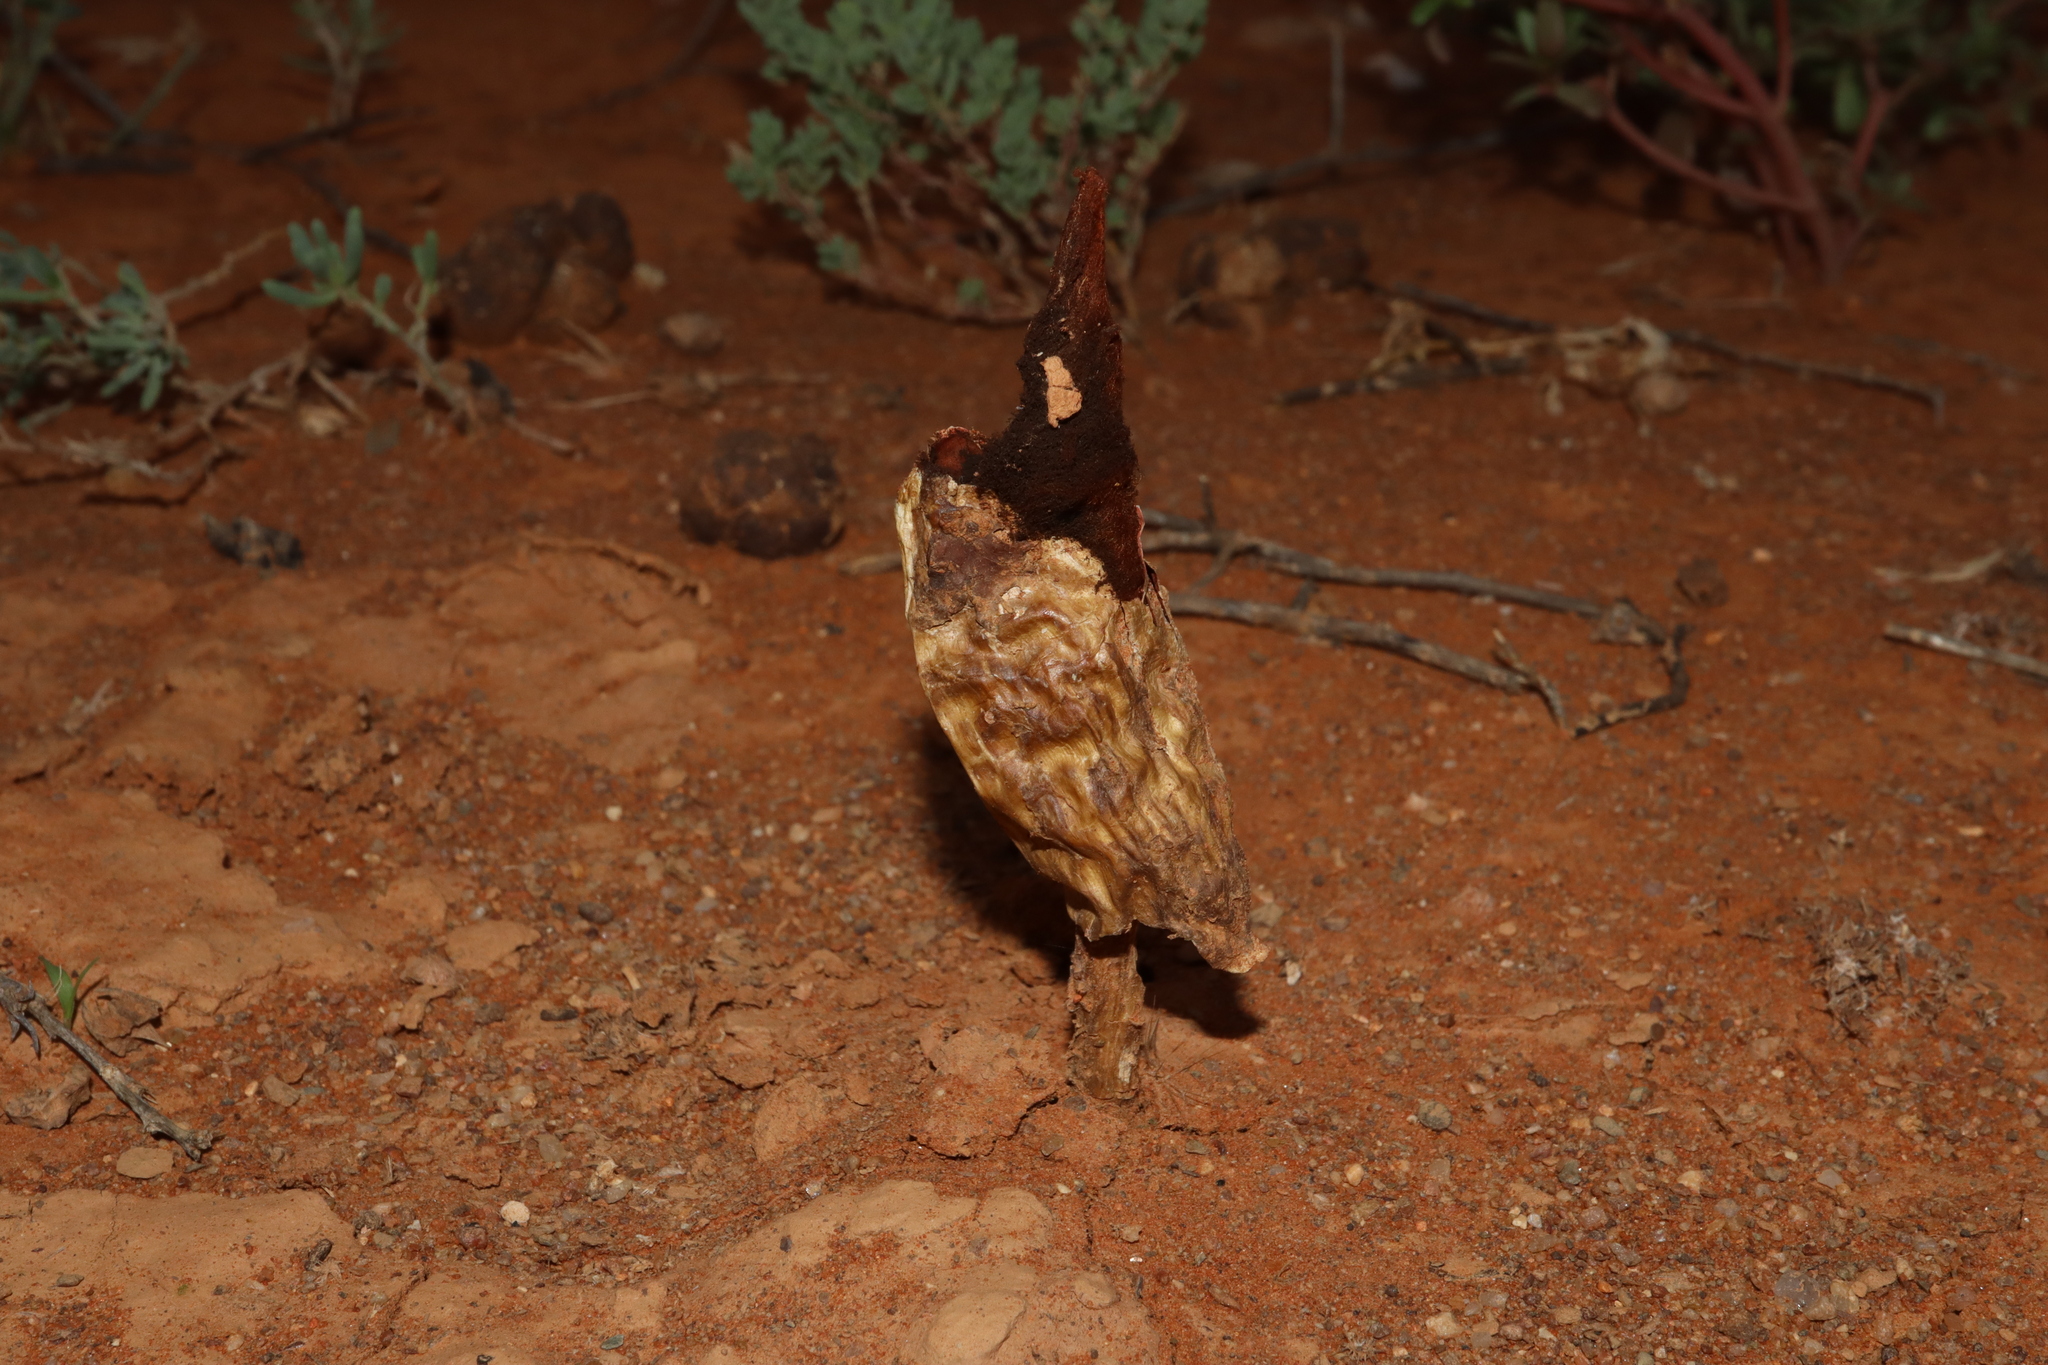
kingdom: Fungi
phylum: Basidiomycota
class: Agaricomycetes
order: Agaricales
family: Agaricaceae
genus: Podaxis
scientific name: Podaxis pistillaris
